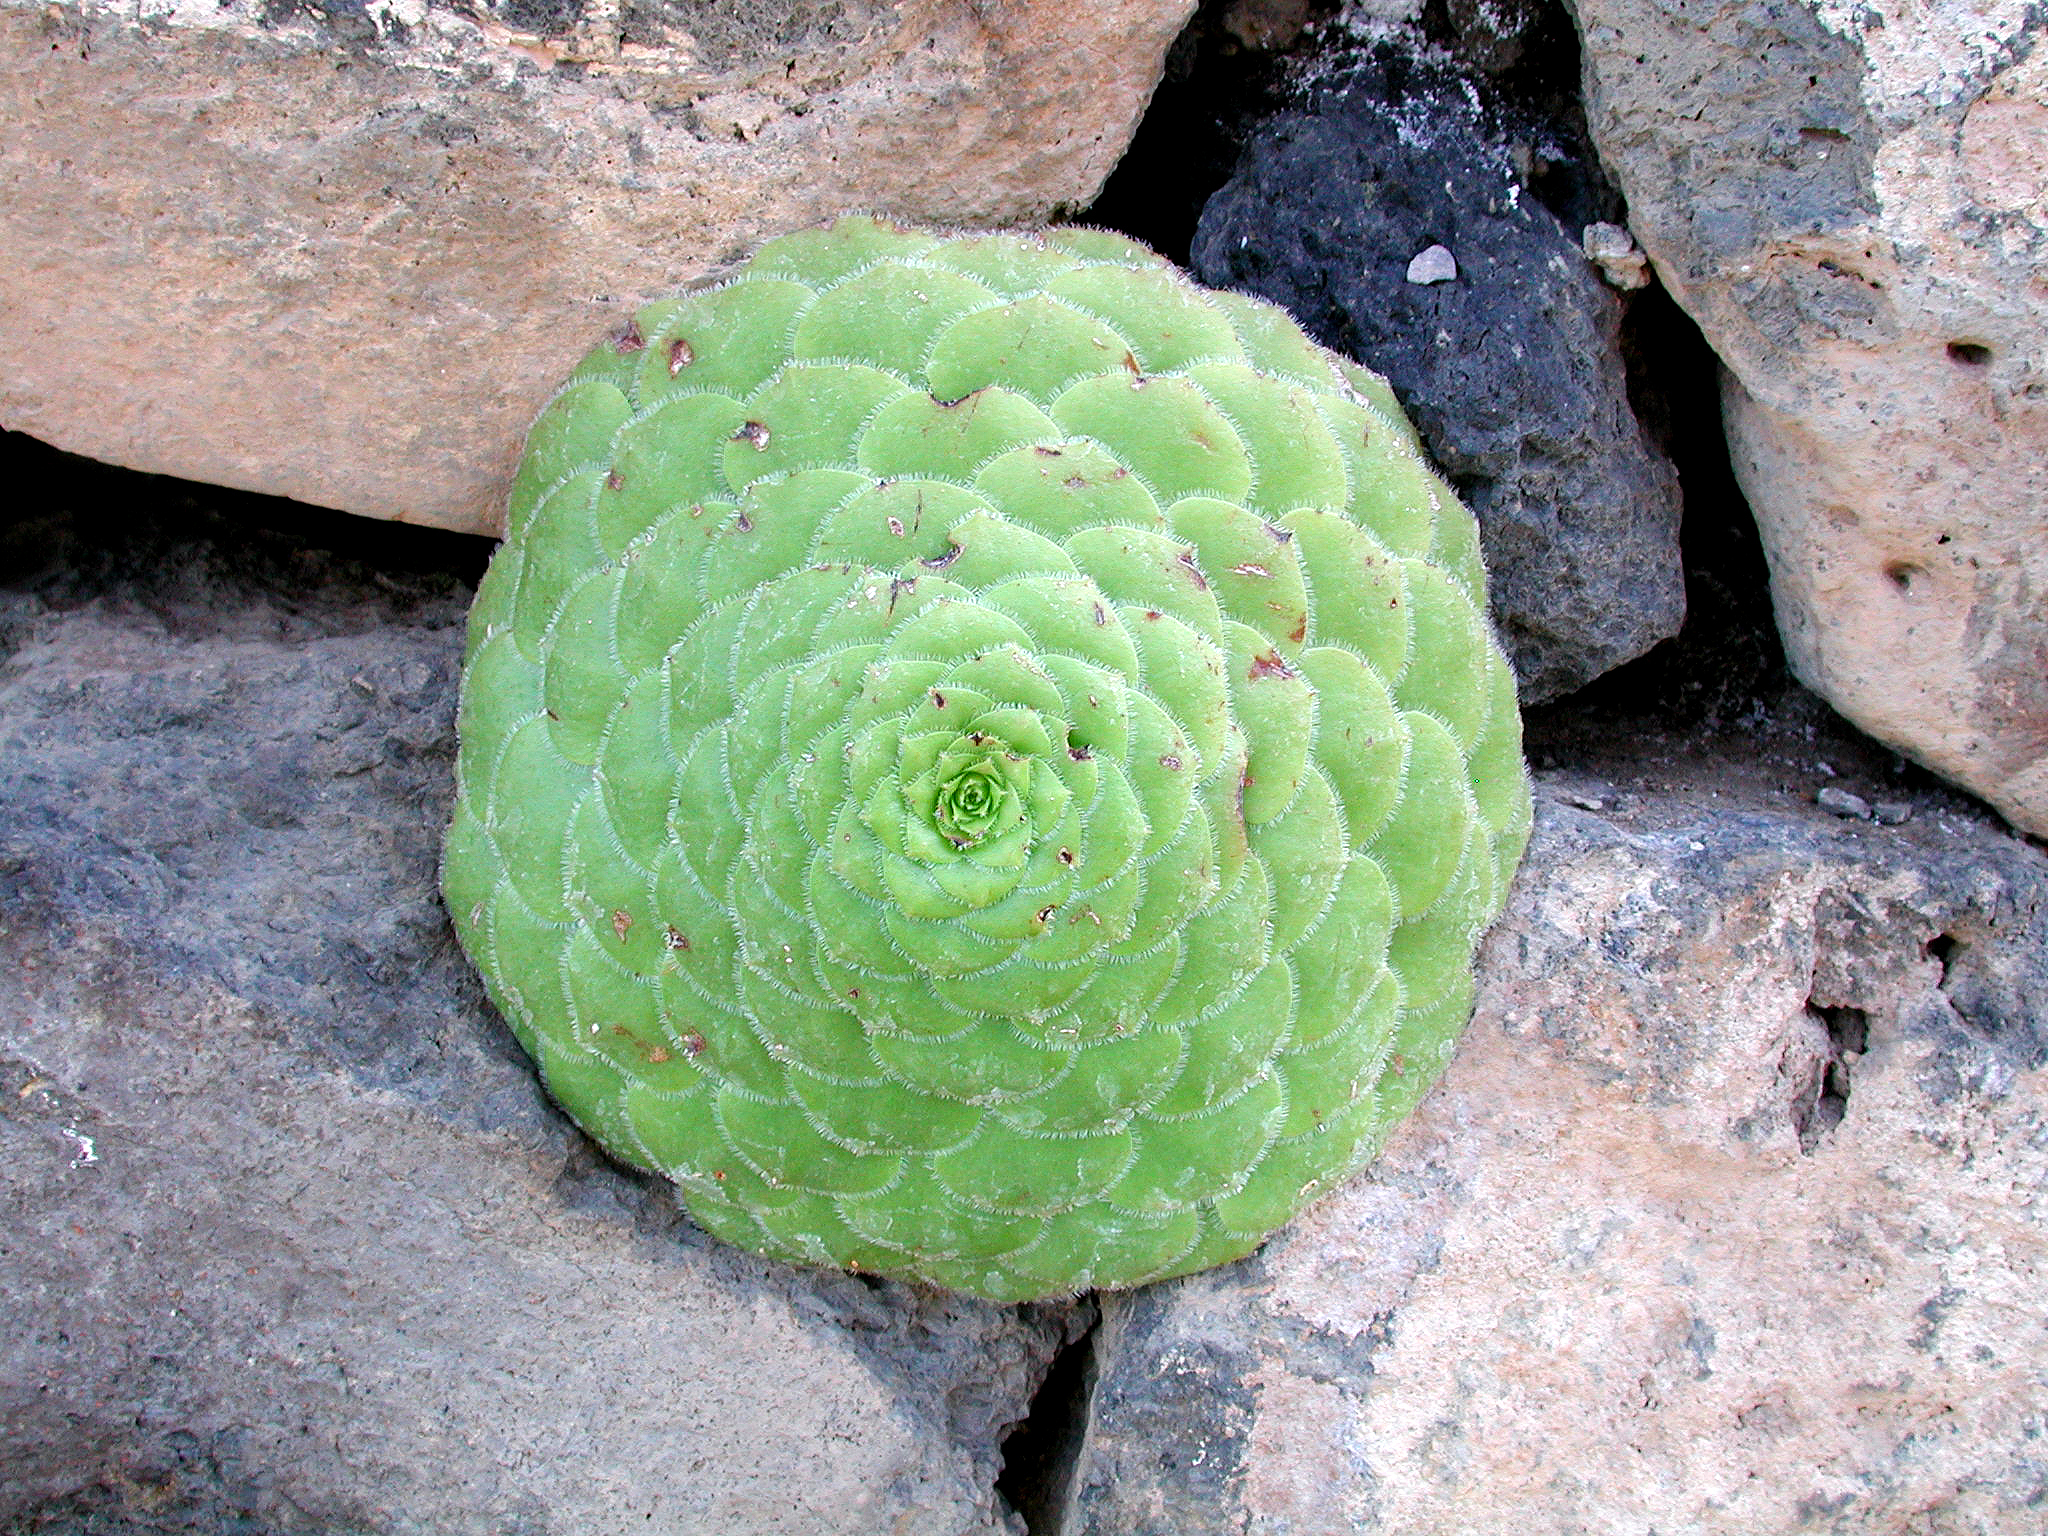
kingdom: Plantae
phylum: Tracheophyta
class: Magnoliopsida
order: Saxifragales
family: Crassulaceae
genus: Aeonium
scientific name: Aeonium tabulaeforme
